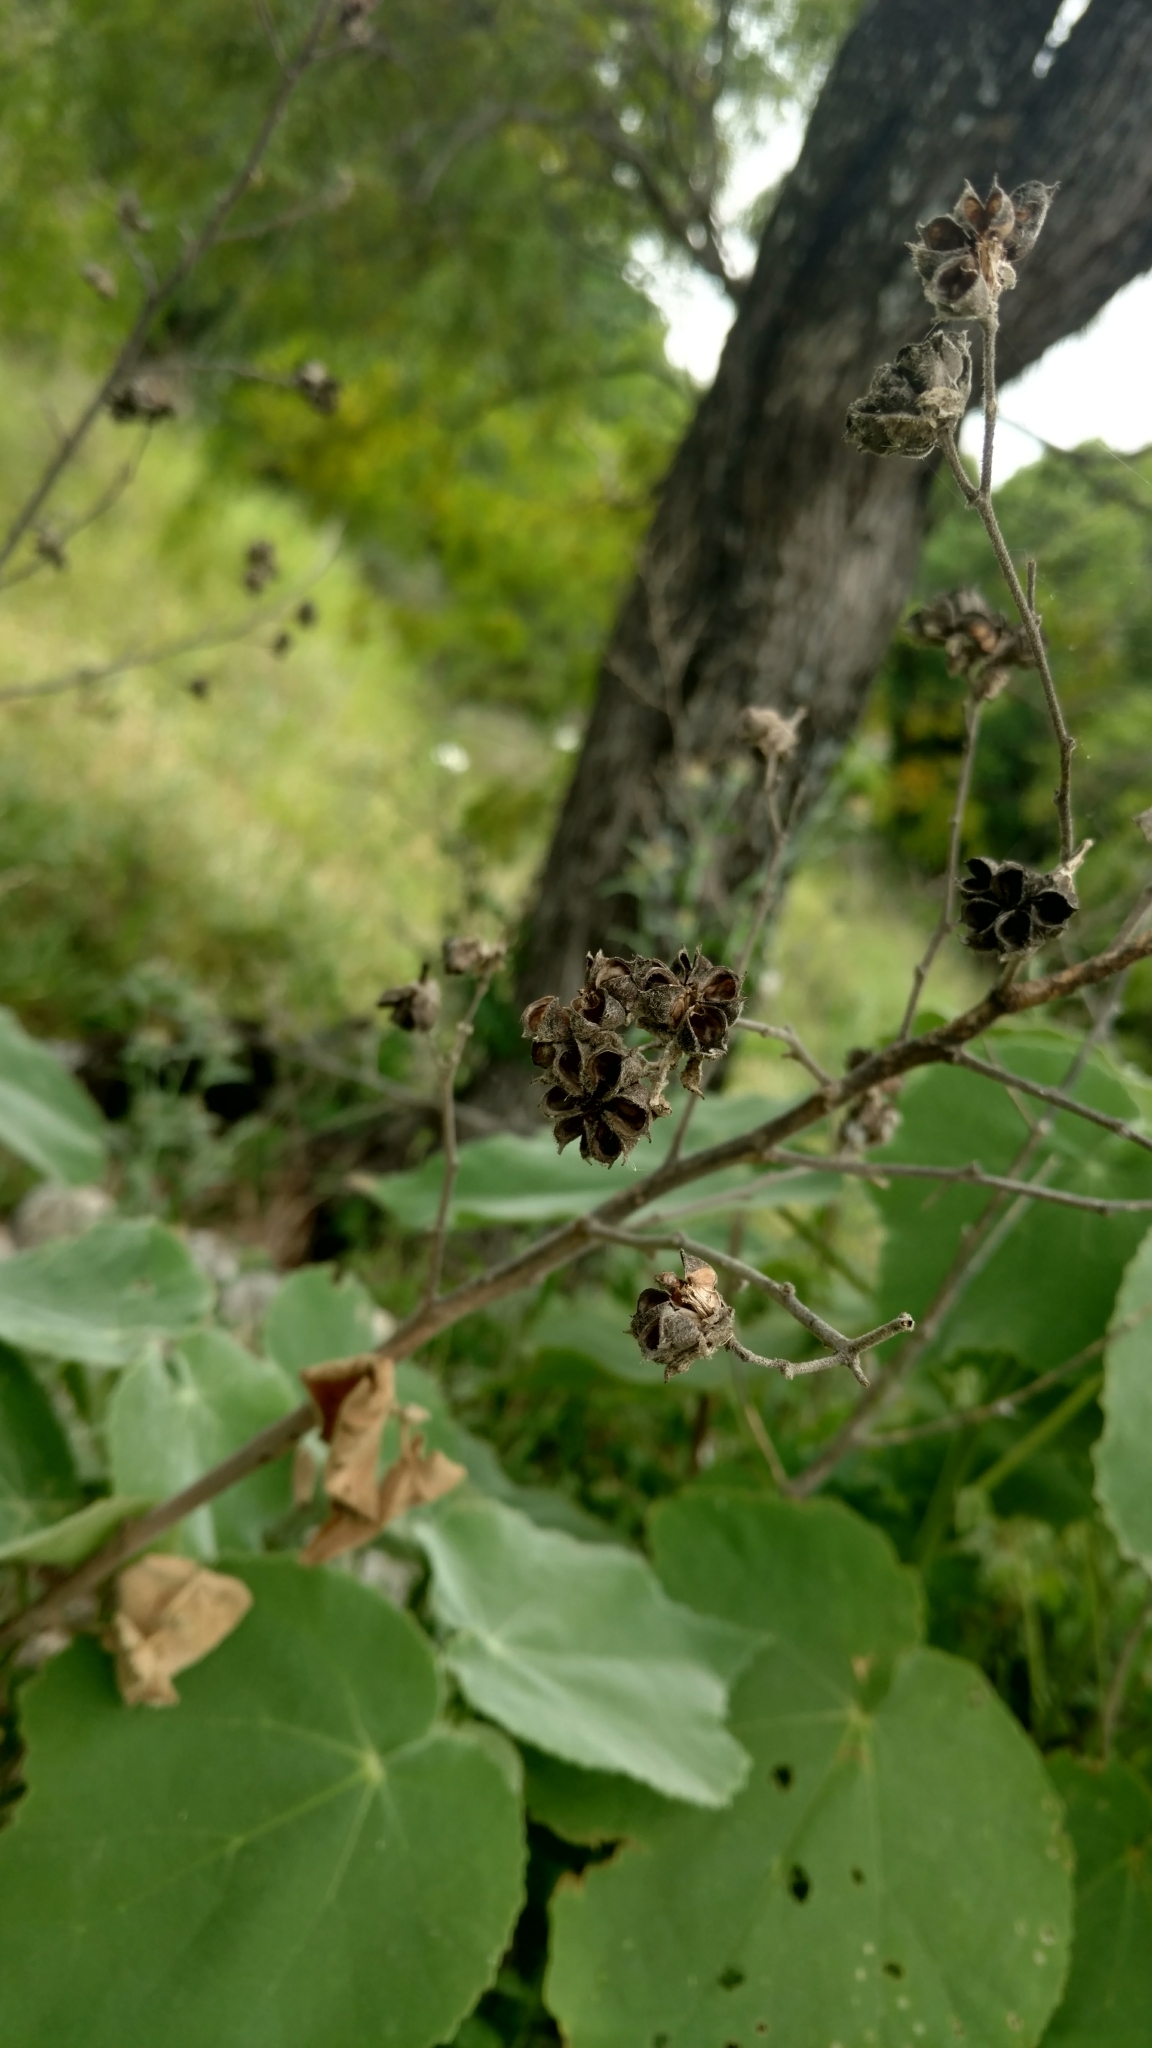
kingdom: Plantae
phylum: Tracheophyta
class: Magnoliopsida
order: Malvales
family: Malvaceae
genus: Allowissadula
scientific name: Allowissadula holosericea
